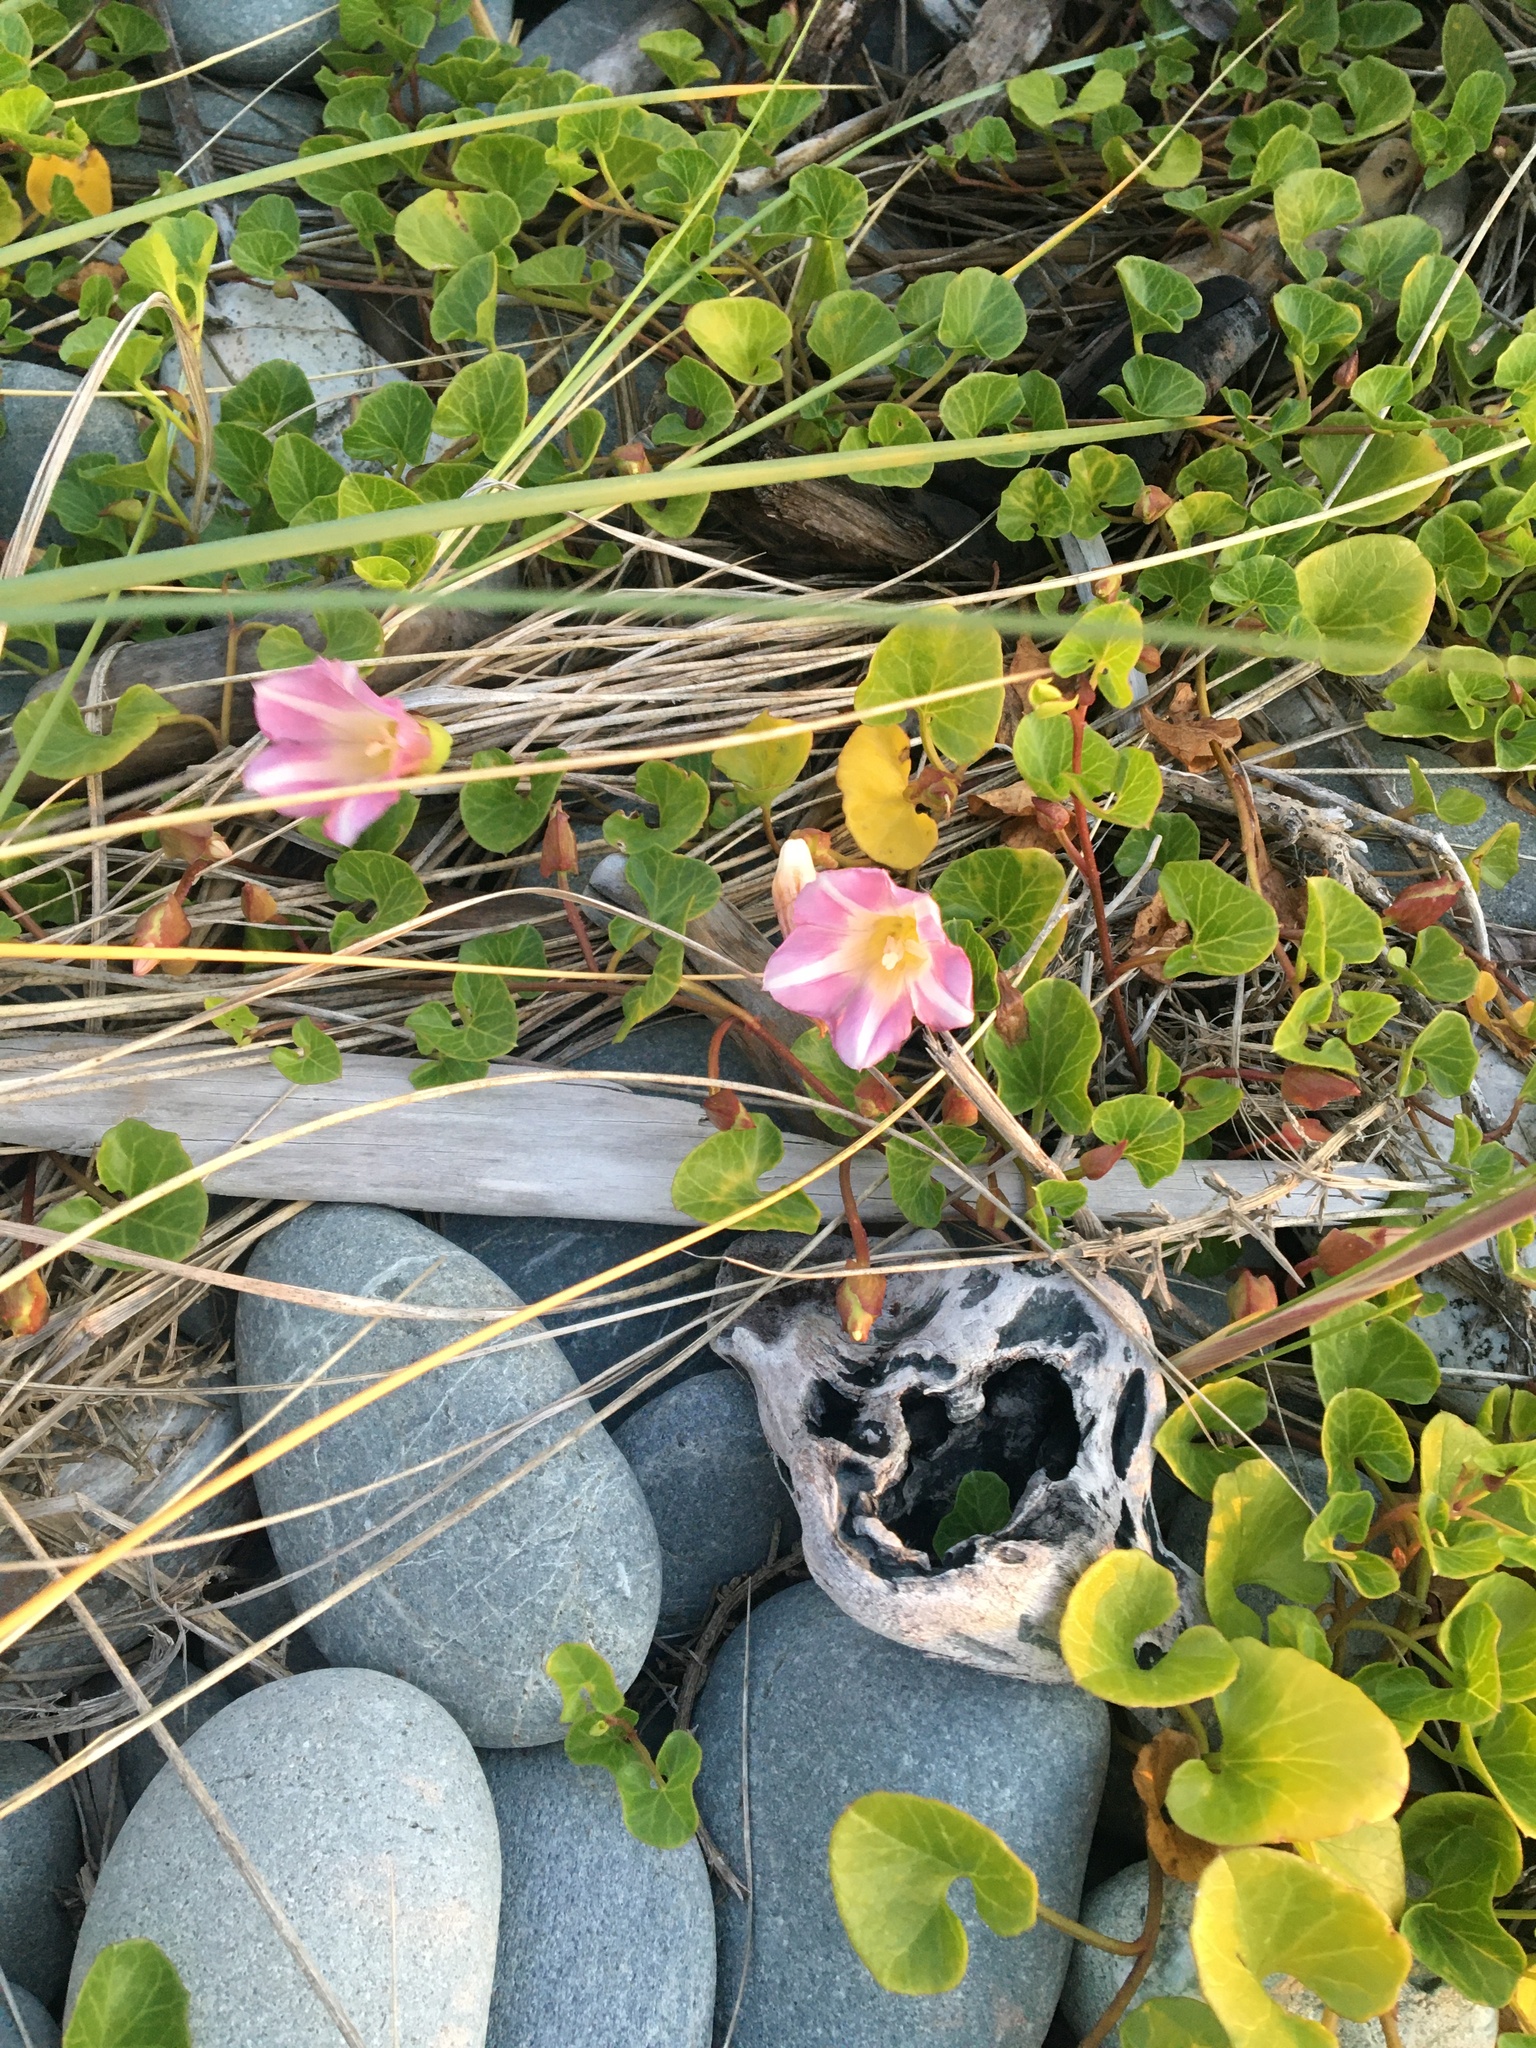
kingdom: Plantae
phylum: Tracheophyta
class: Magnoliopsida
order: Solanales
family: Convolvulaceae
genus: Calystegia
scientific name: Calystegia soldanella
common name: Sea bindweed
